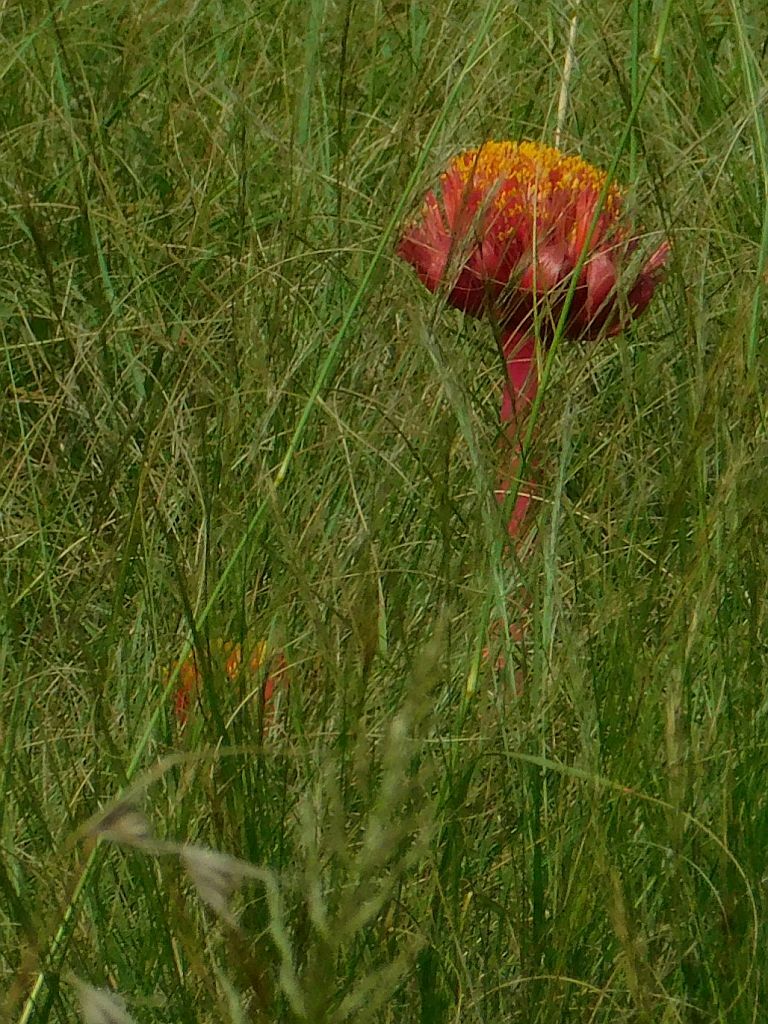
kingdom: Plantae
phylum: Tracheophyta
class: Liliopsida
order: Asparagales
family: Amaryllidaceae
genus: Haemanthus
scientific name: Haemanthus sanguineus
